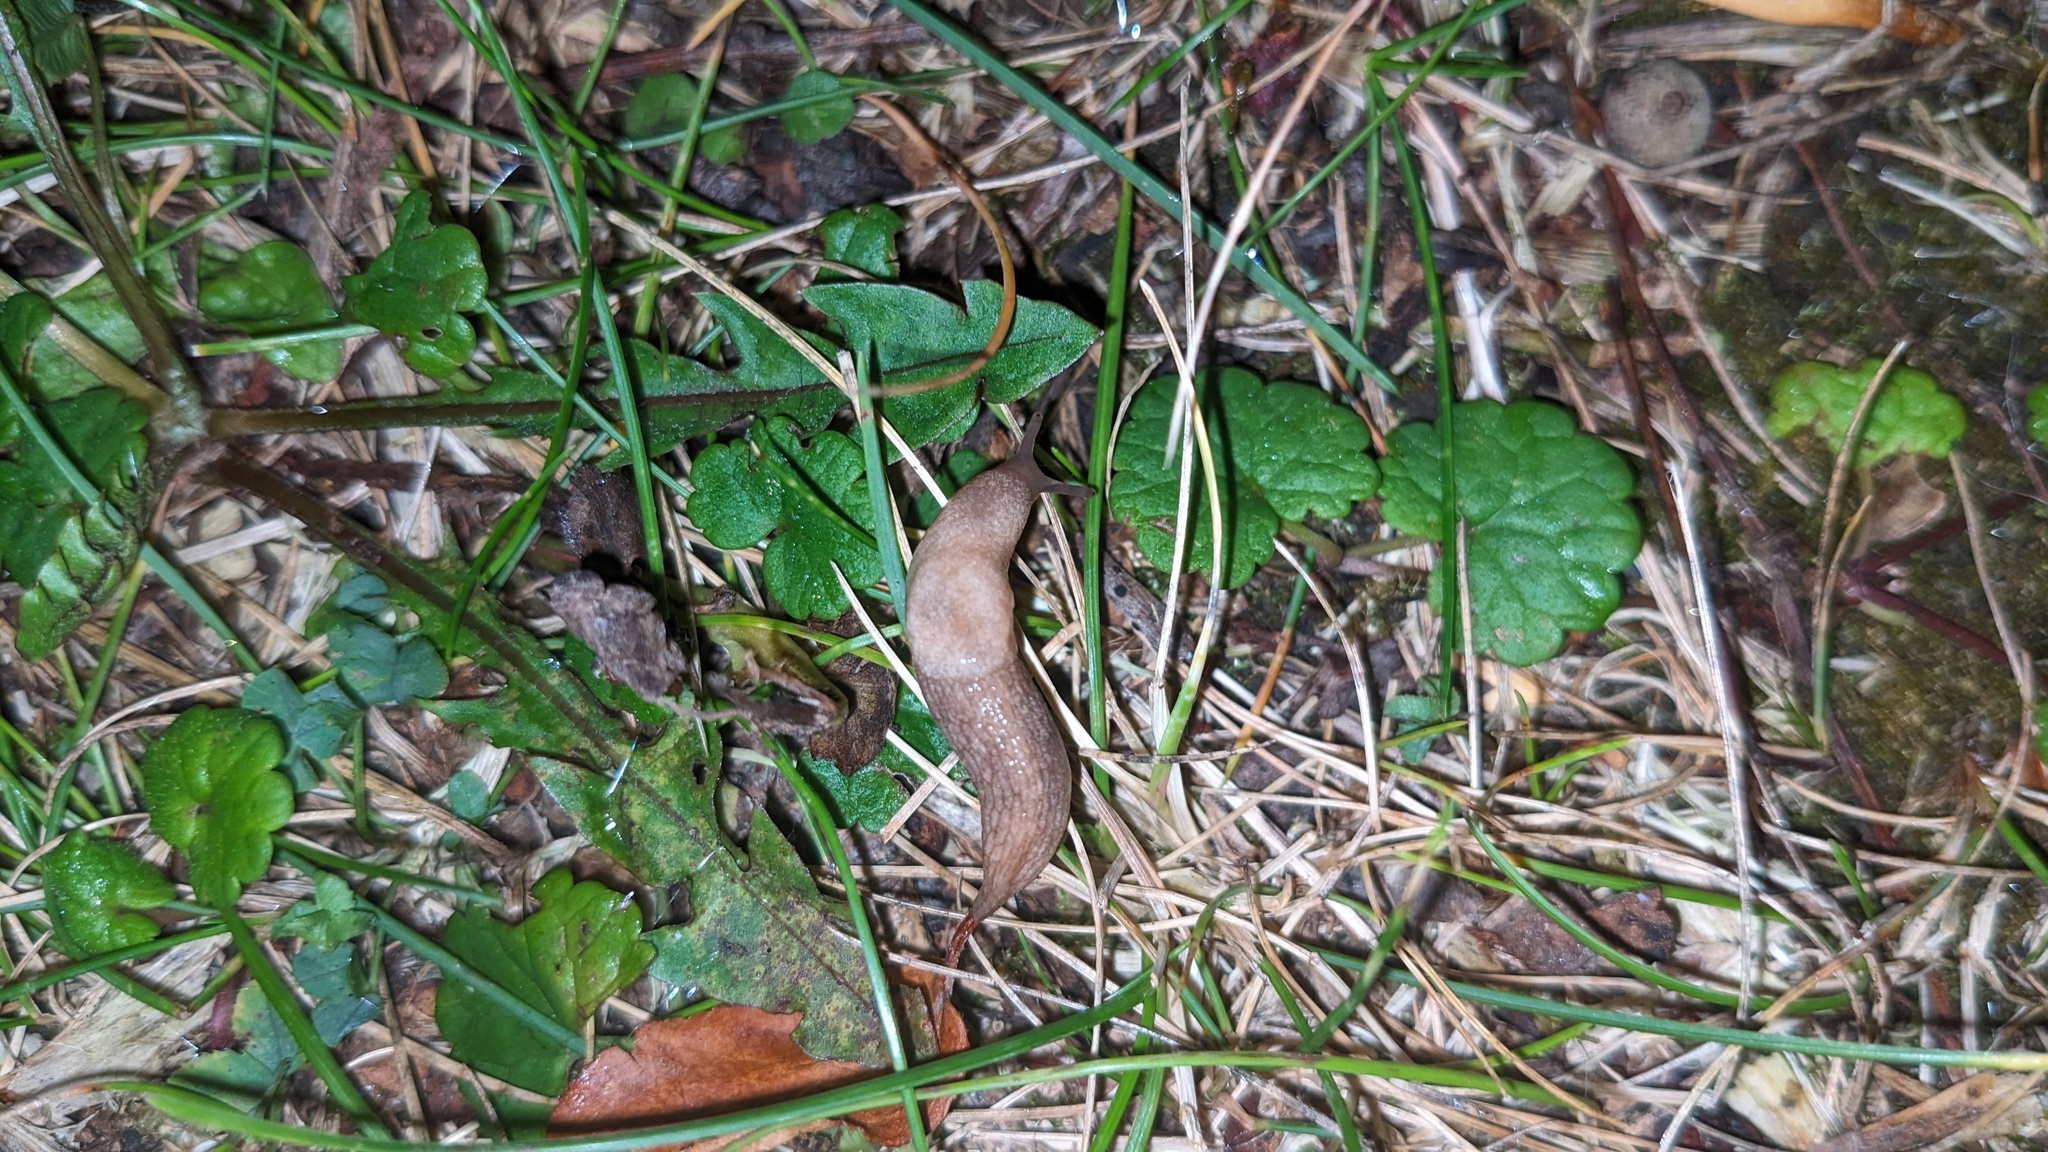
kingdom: Plantae
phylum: Tracheophyta
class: Magnoliopsida
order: Lamiales
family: Lamiaceae
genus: Glechoma
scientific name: Glechoma hederacea
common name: Ground ivy
